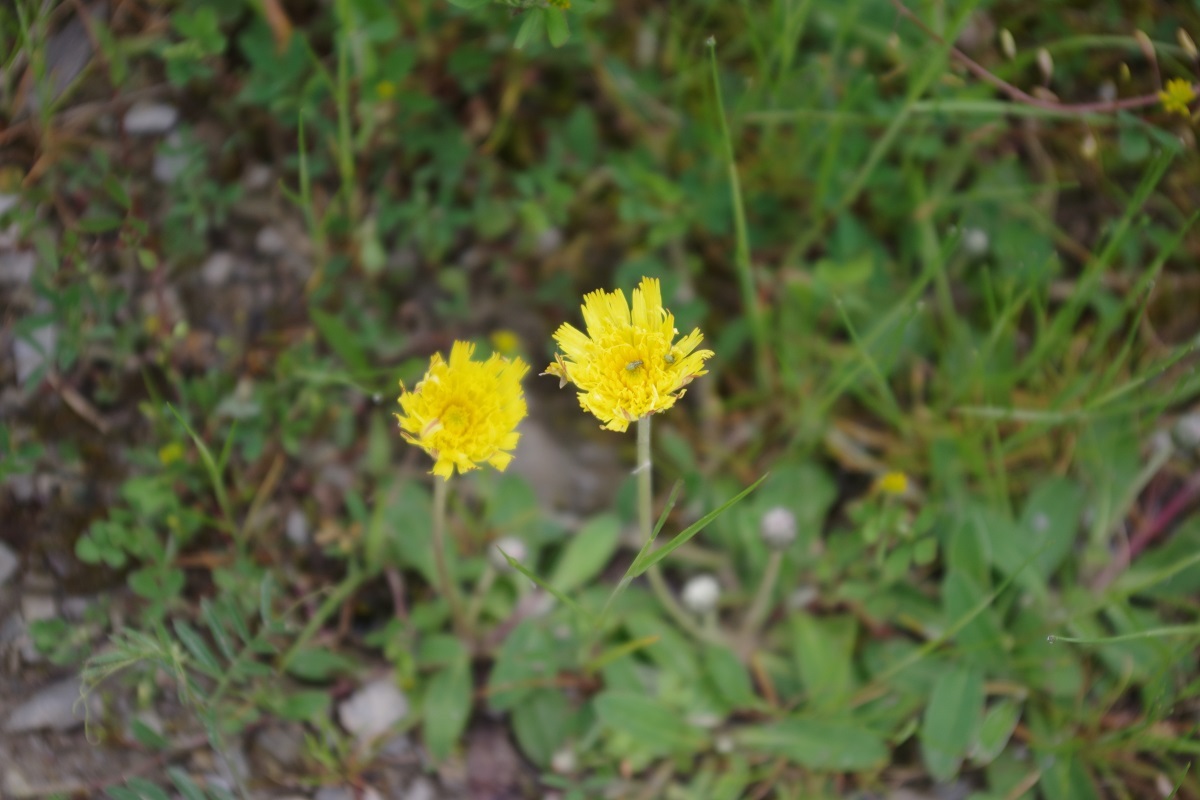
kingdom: Plantae
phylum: Tracheophyta
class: Magnoliopsida
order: Asterales
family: Asteraceae
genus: Pilosella
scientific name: Pilosella officinarum
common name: Mouse-ear hawkweed
